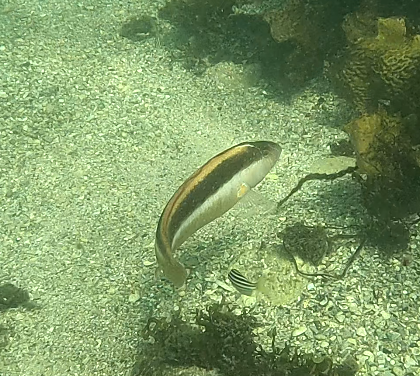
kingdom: Animalia
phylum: Chordata
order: Perciformes
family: Labridae
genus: Ophthalmolepis
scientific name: Ophthalmolepis lineolata
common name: Maori wrasse
